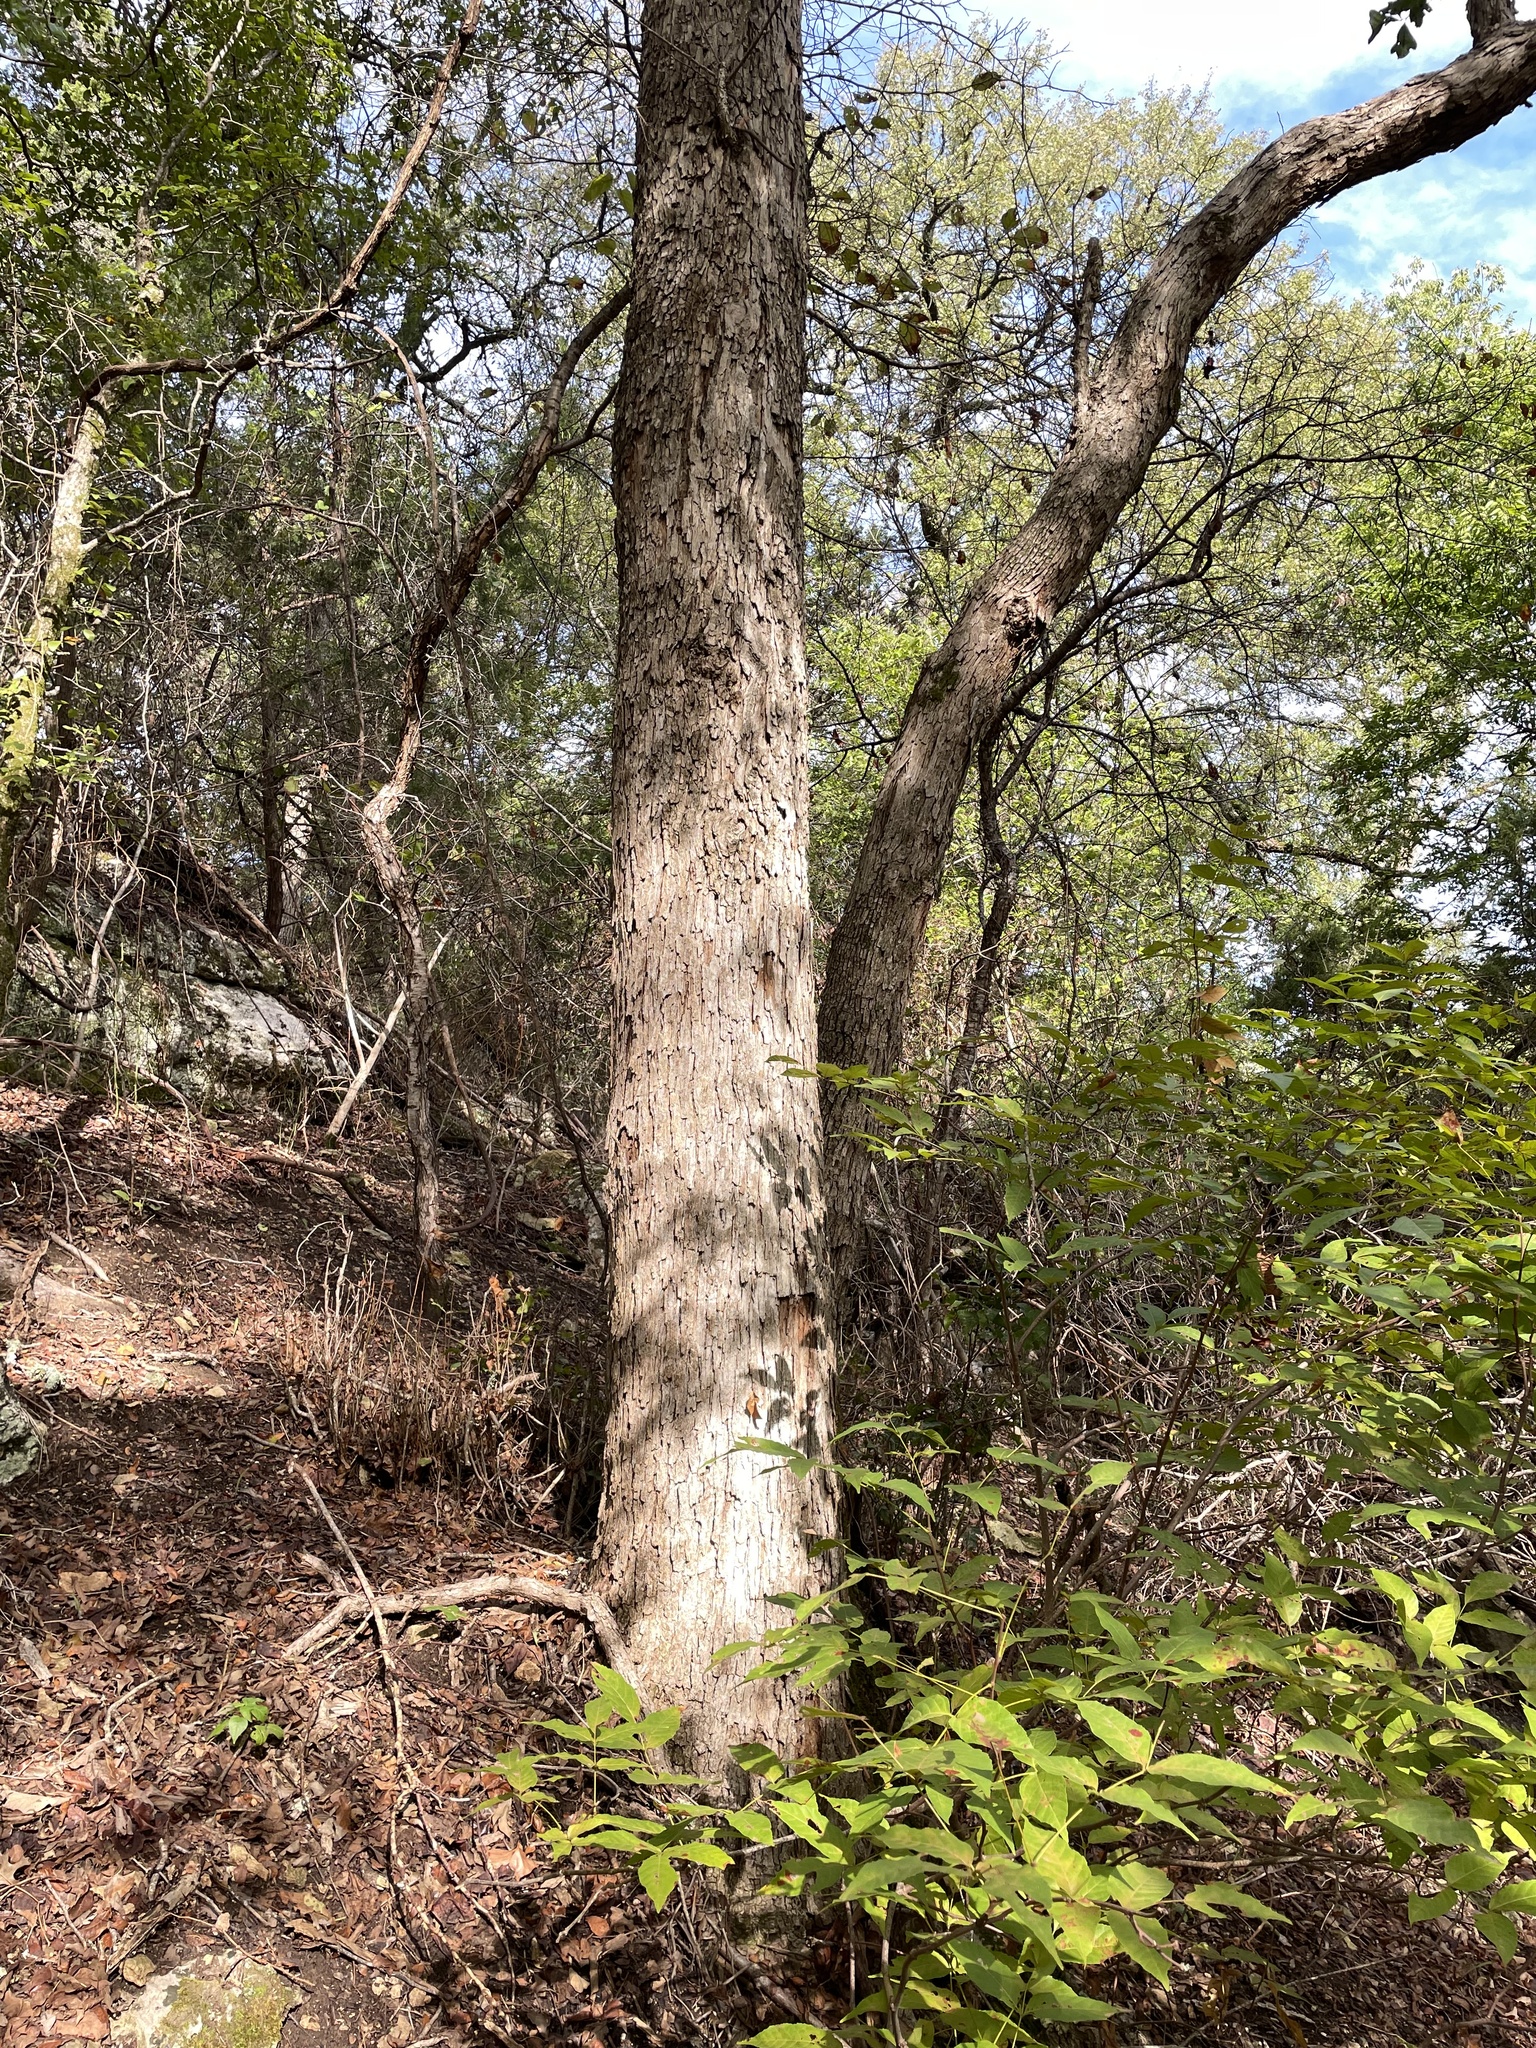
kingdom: Plantae
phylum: Tracheophyta
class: Magnoliopsida
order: Fagales
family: Fagaceae
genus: Quercus
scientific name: Quercus sinuata
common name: Durand oak
